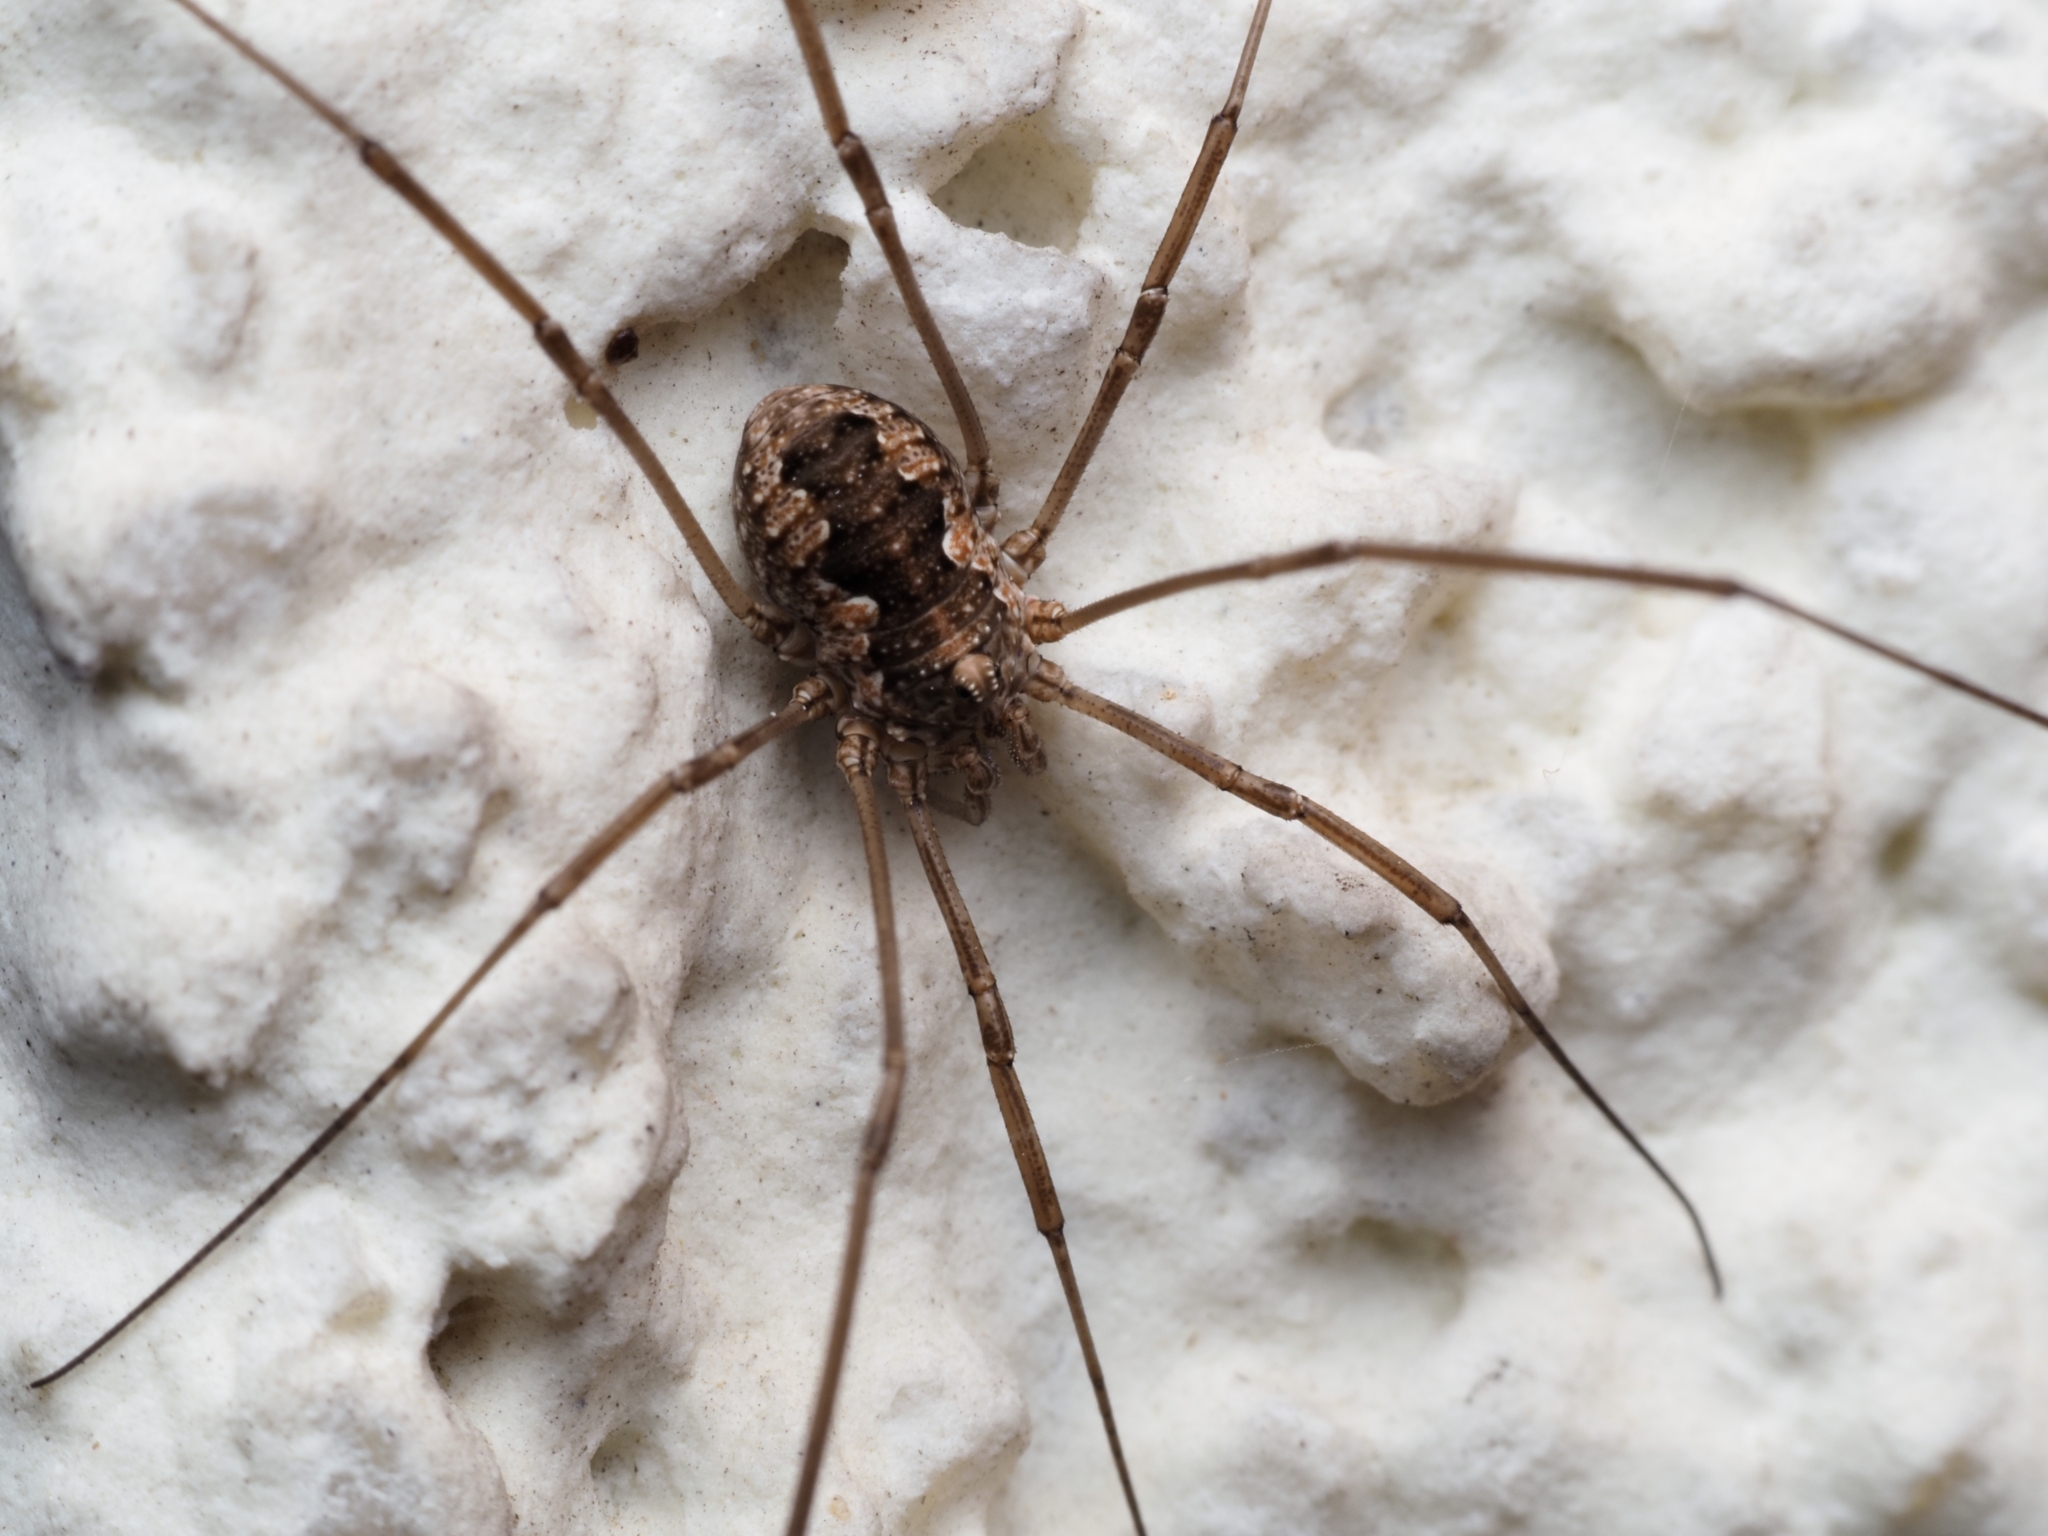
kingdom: Animalia
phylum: Arthropoda
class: Arachnida
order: Opiliones
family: Phalangiidae
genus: Phalangium
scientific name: Phalangium opilio
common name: Daddy longleg
